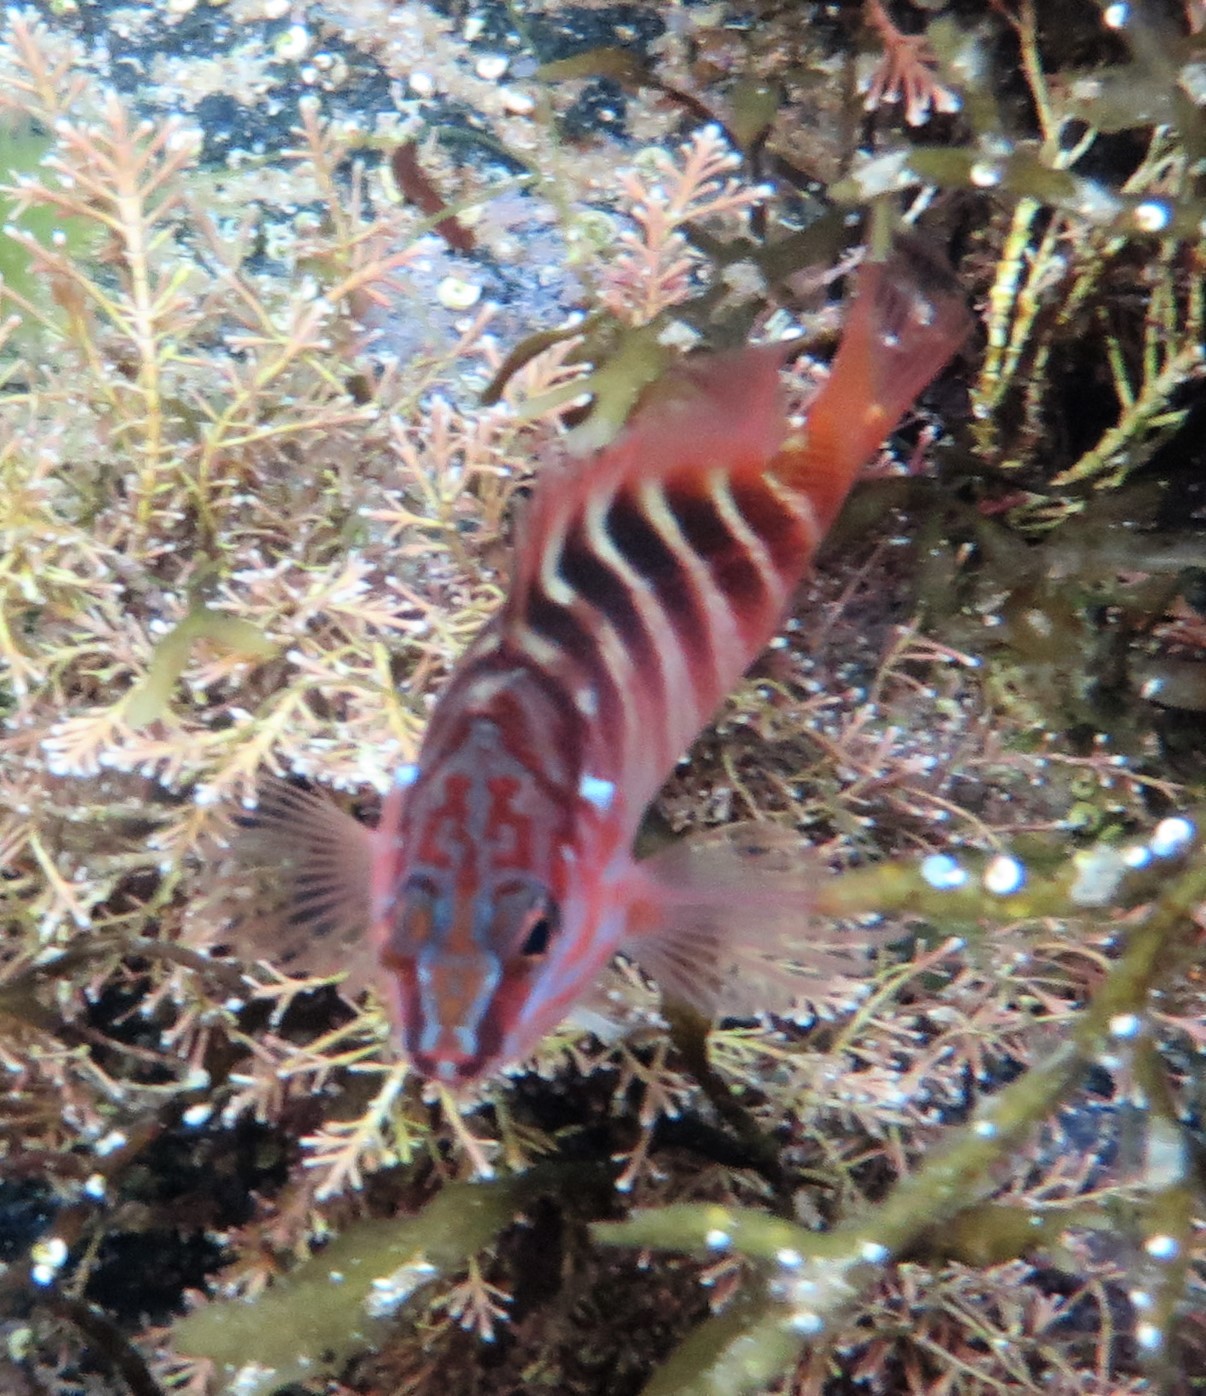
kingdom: Animalia
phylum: Chordata
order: Perciformes
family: Serranidae
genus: Hypoplectrodes
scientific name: Hypoplectrodes maccullochi
